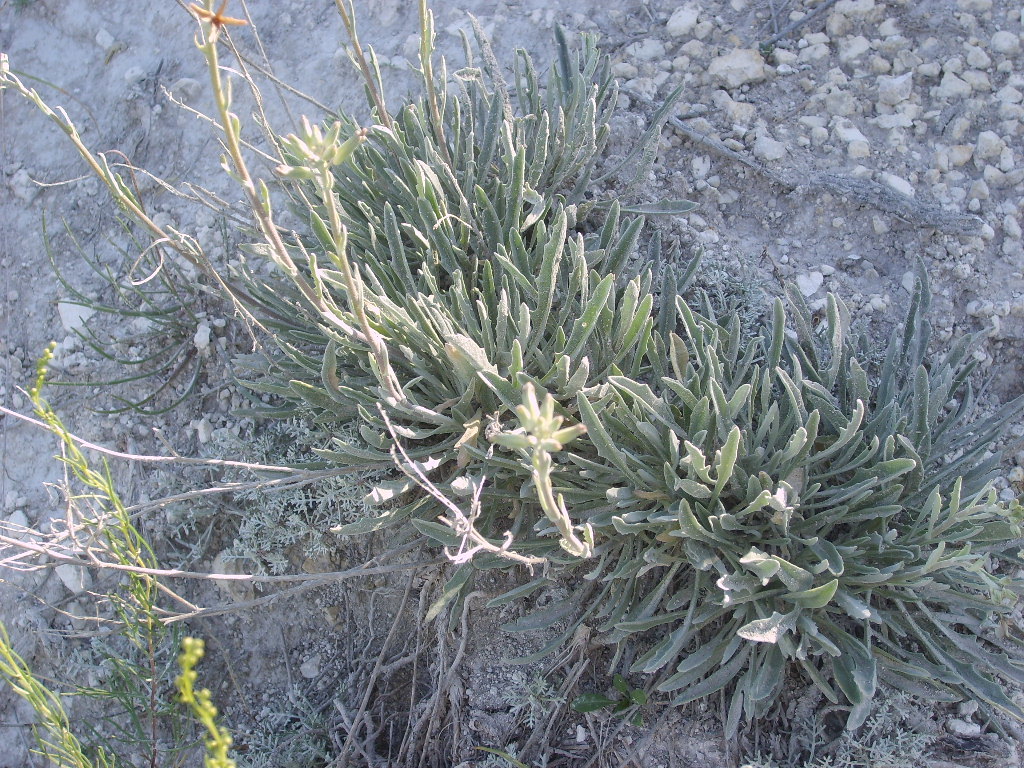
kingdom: Plantae
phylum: Tracheophyta
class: Magnoliopsida
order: Brassicales
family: Brassicaceae
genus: Matthiola
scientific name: Matthiola fragrans
